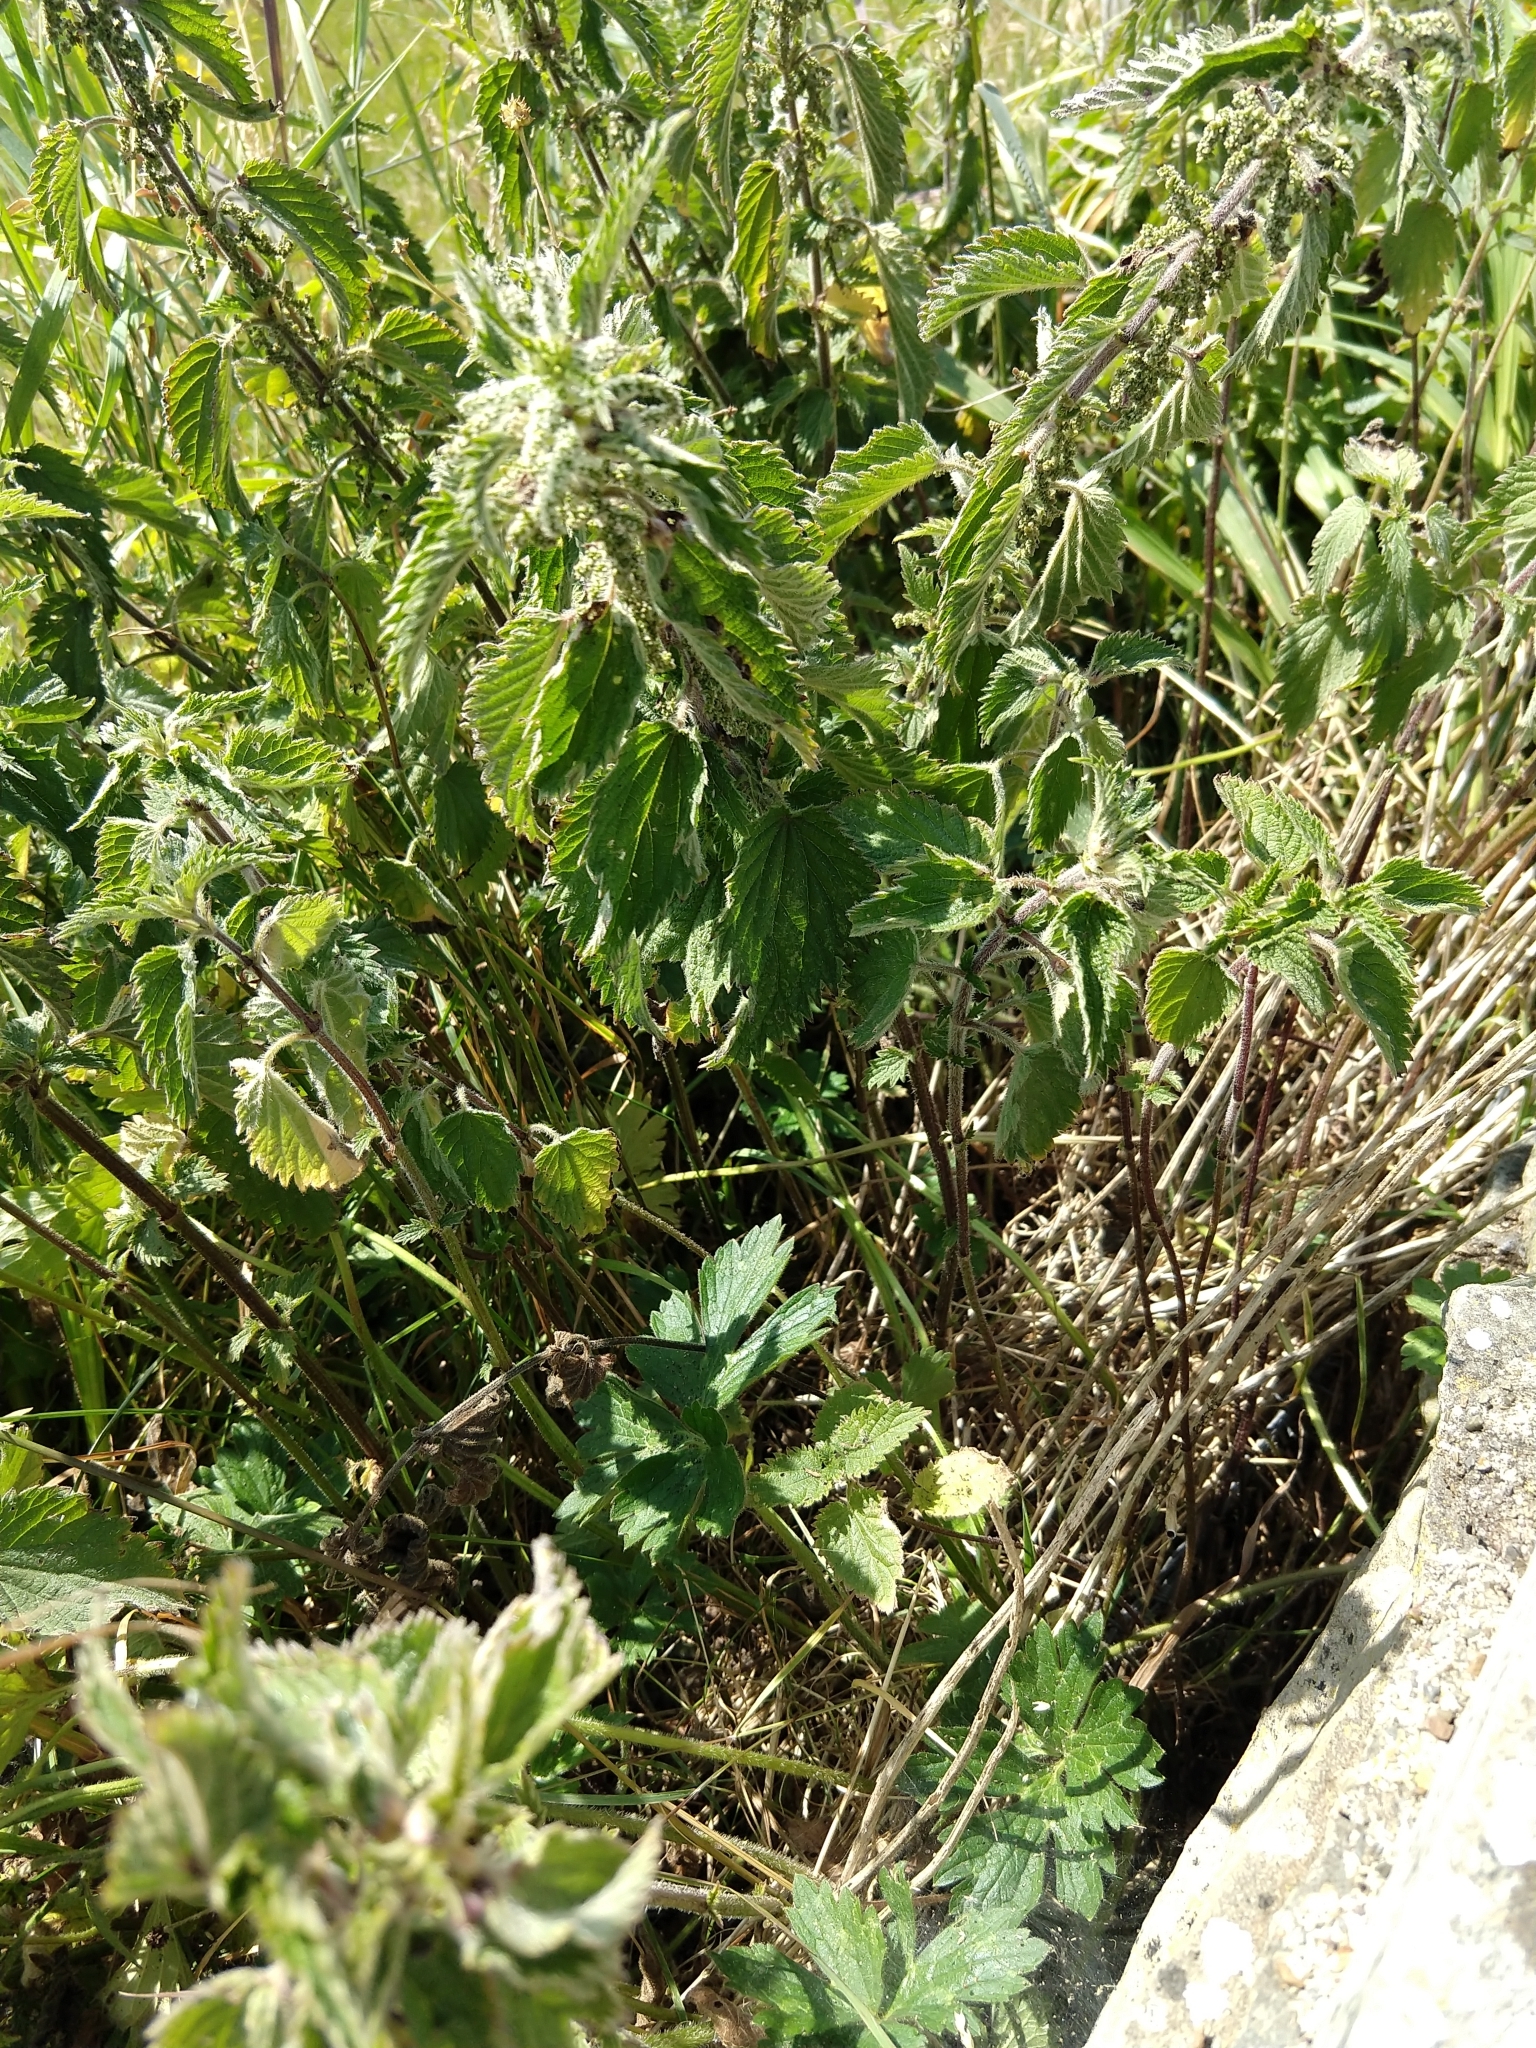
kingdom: Plantae
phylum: Tracheophyta
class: Magnoliopsida
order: Rosales
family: Urticaceae
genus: Urtica
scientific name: Urtica dioica
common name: Common nettle
